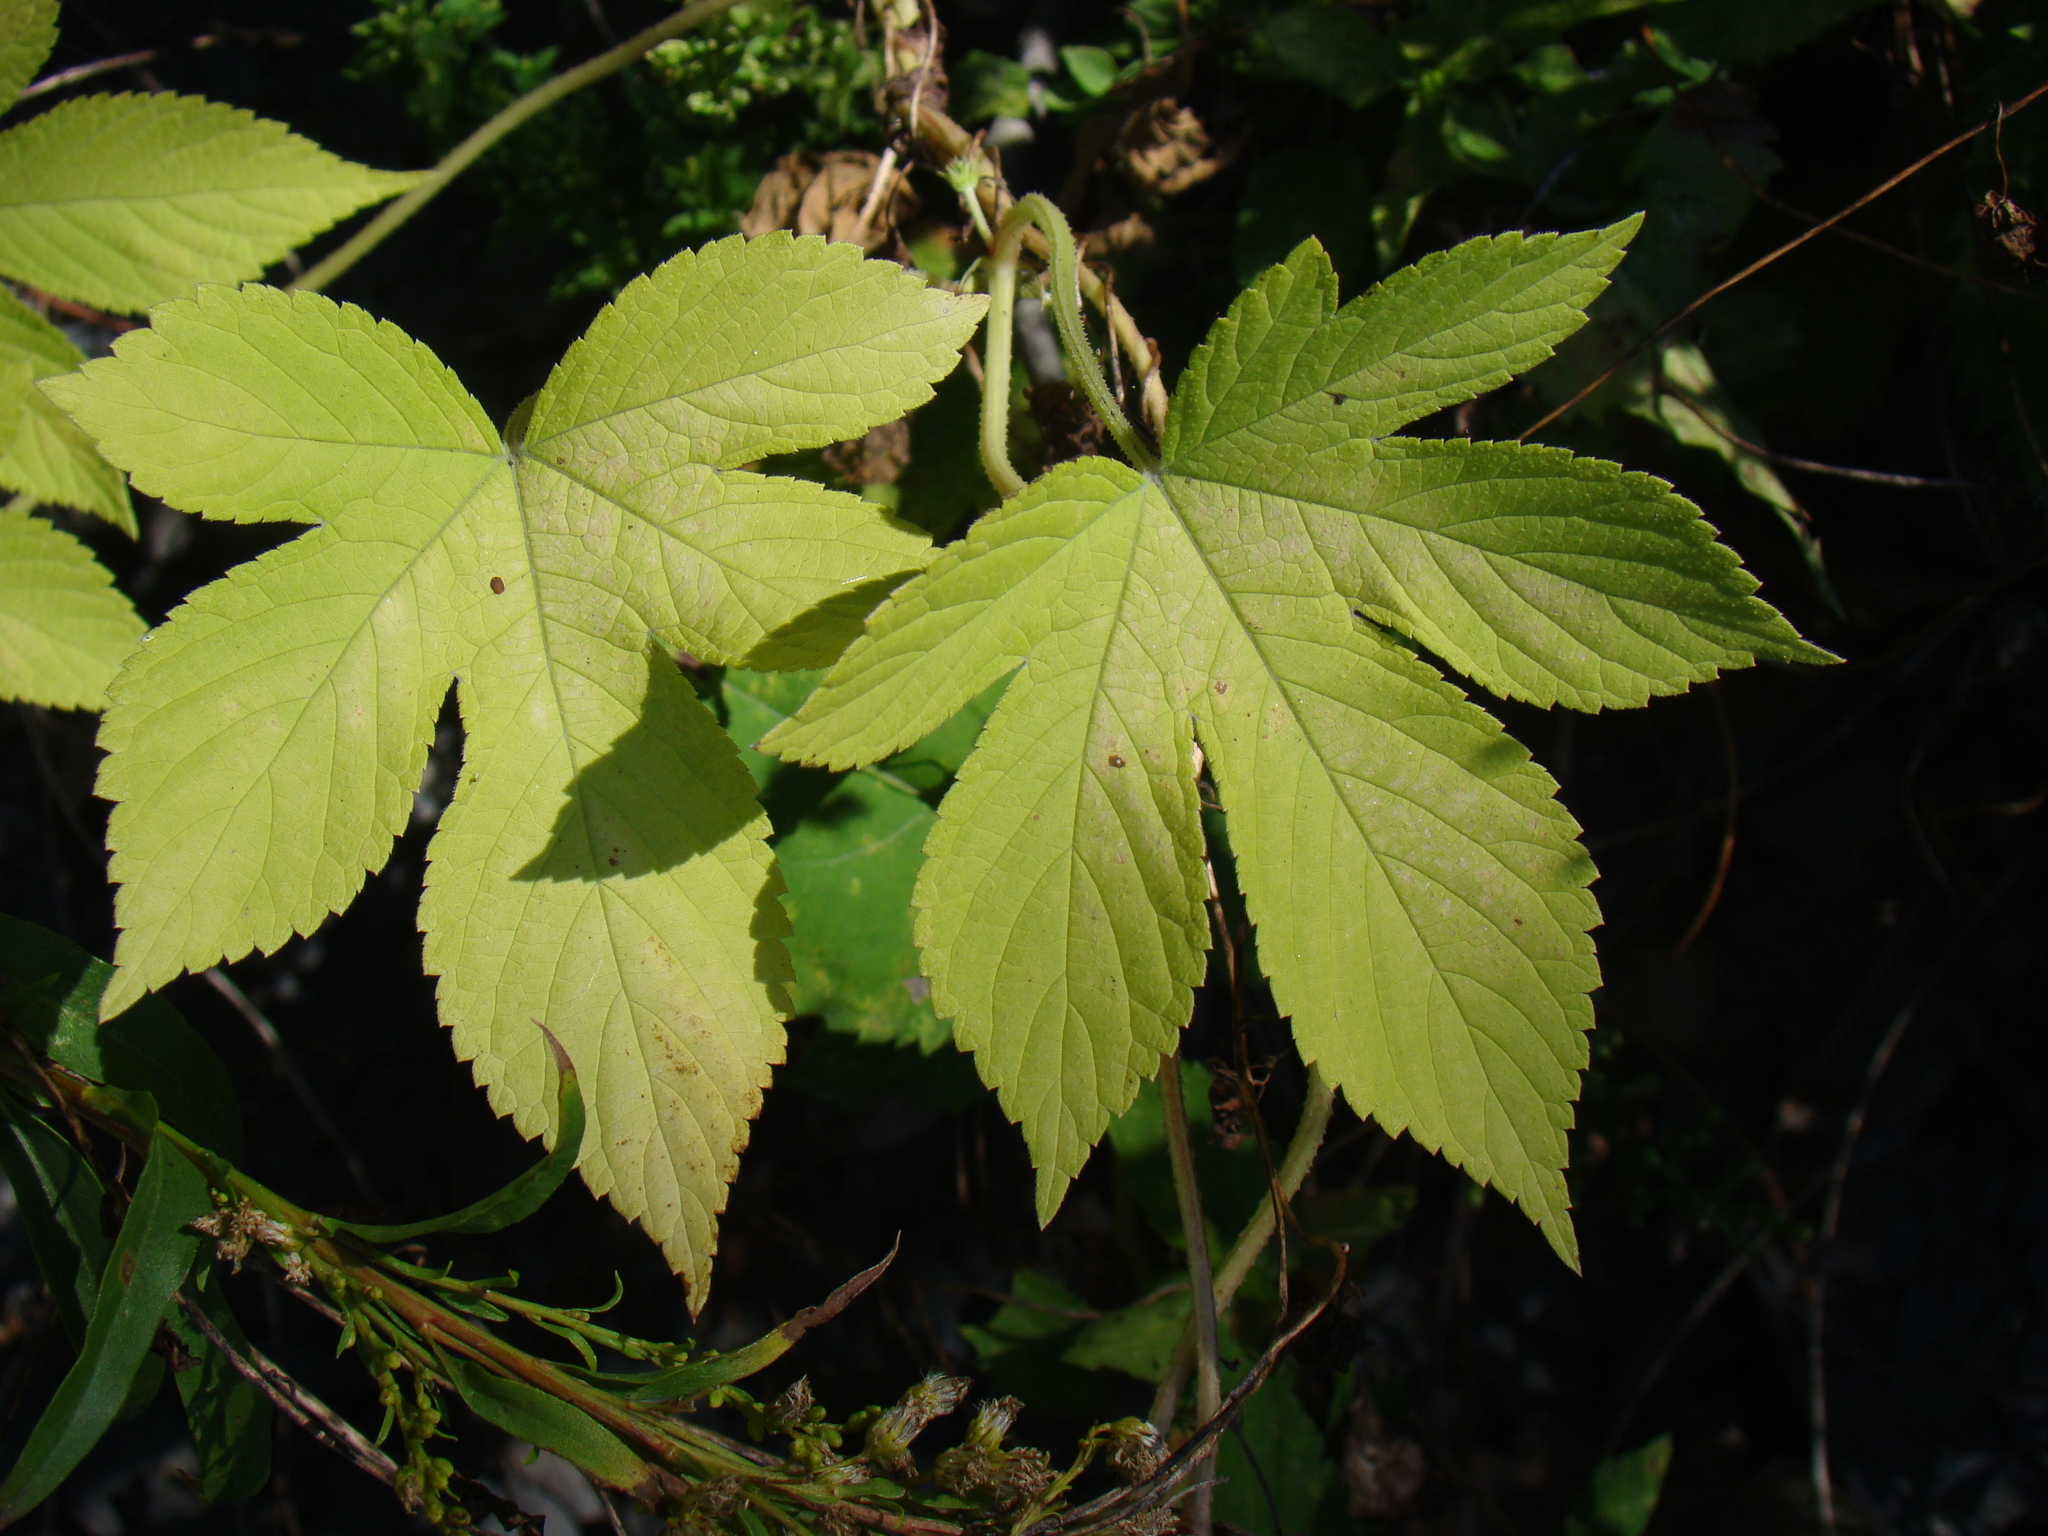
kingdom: Plantae
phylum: Tracheophyta
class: Magnoliopsida
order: Rosales
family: Cannabaceae
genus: Humulus
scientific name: Humulus scandens
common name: Japanese hop
